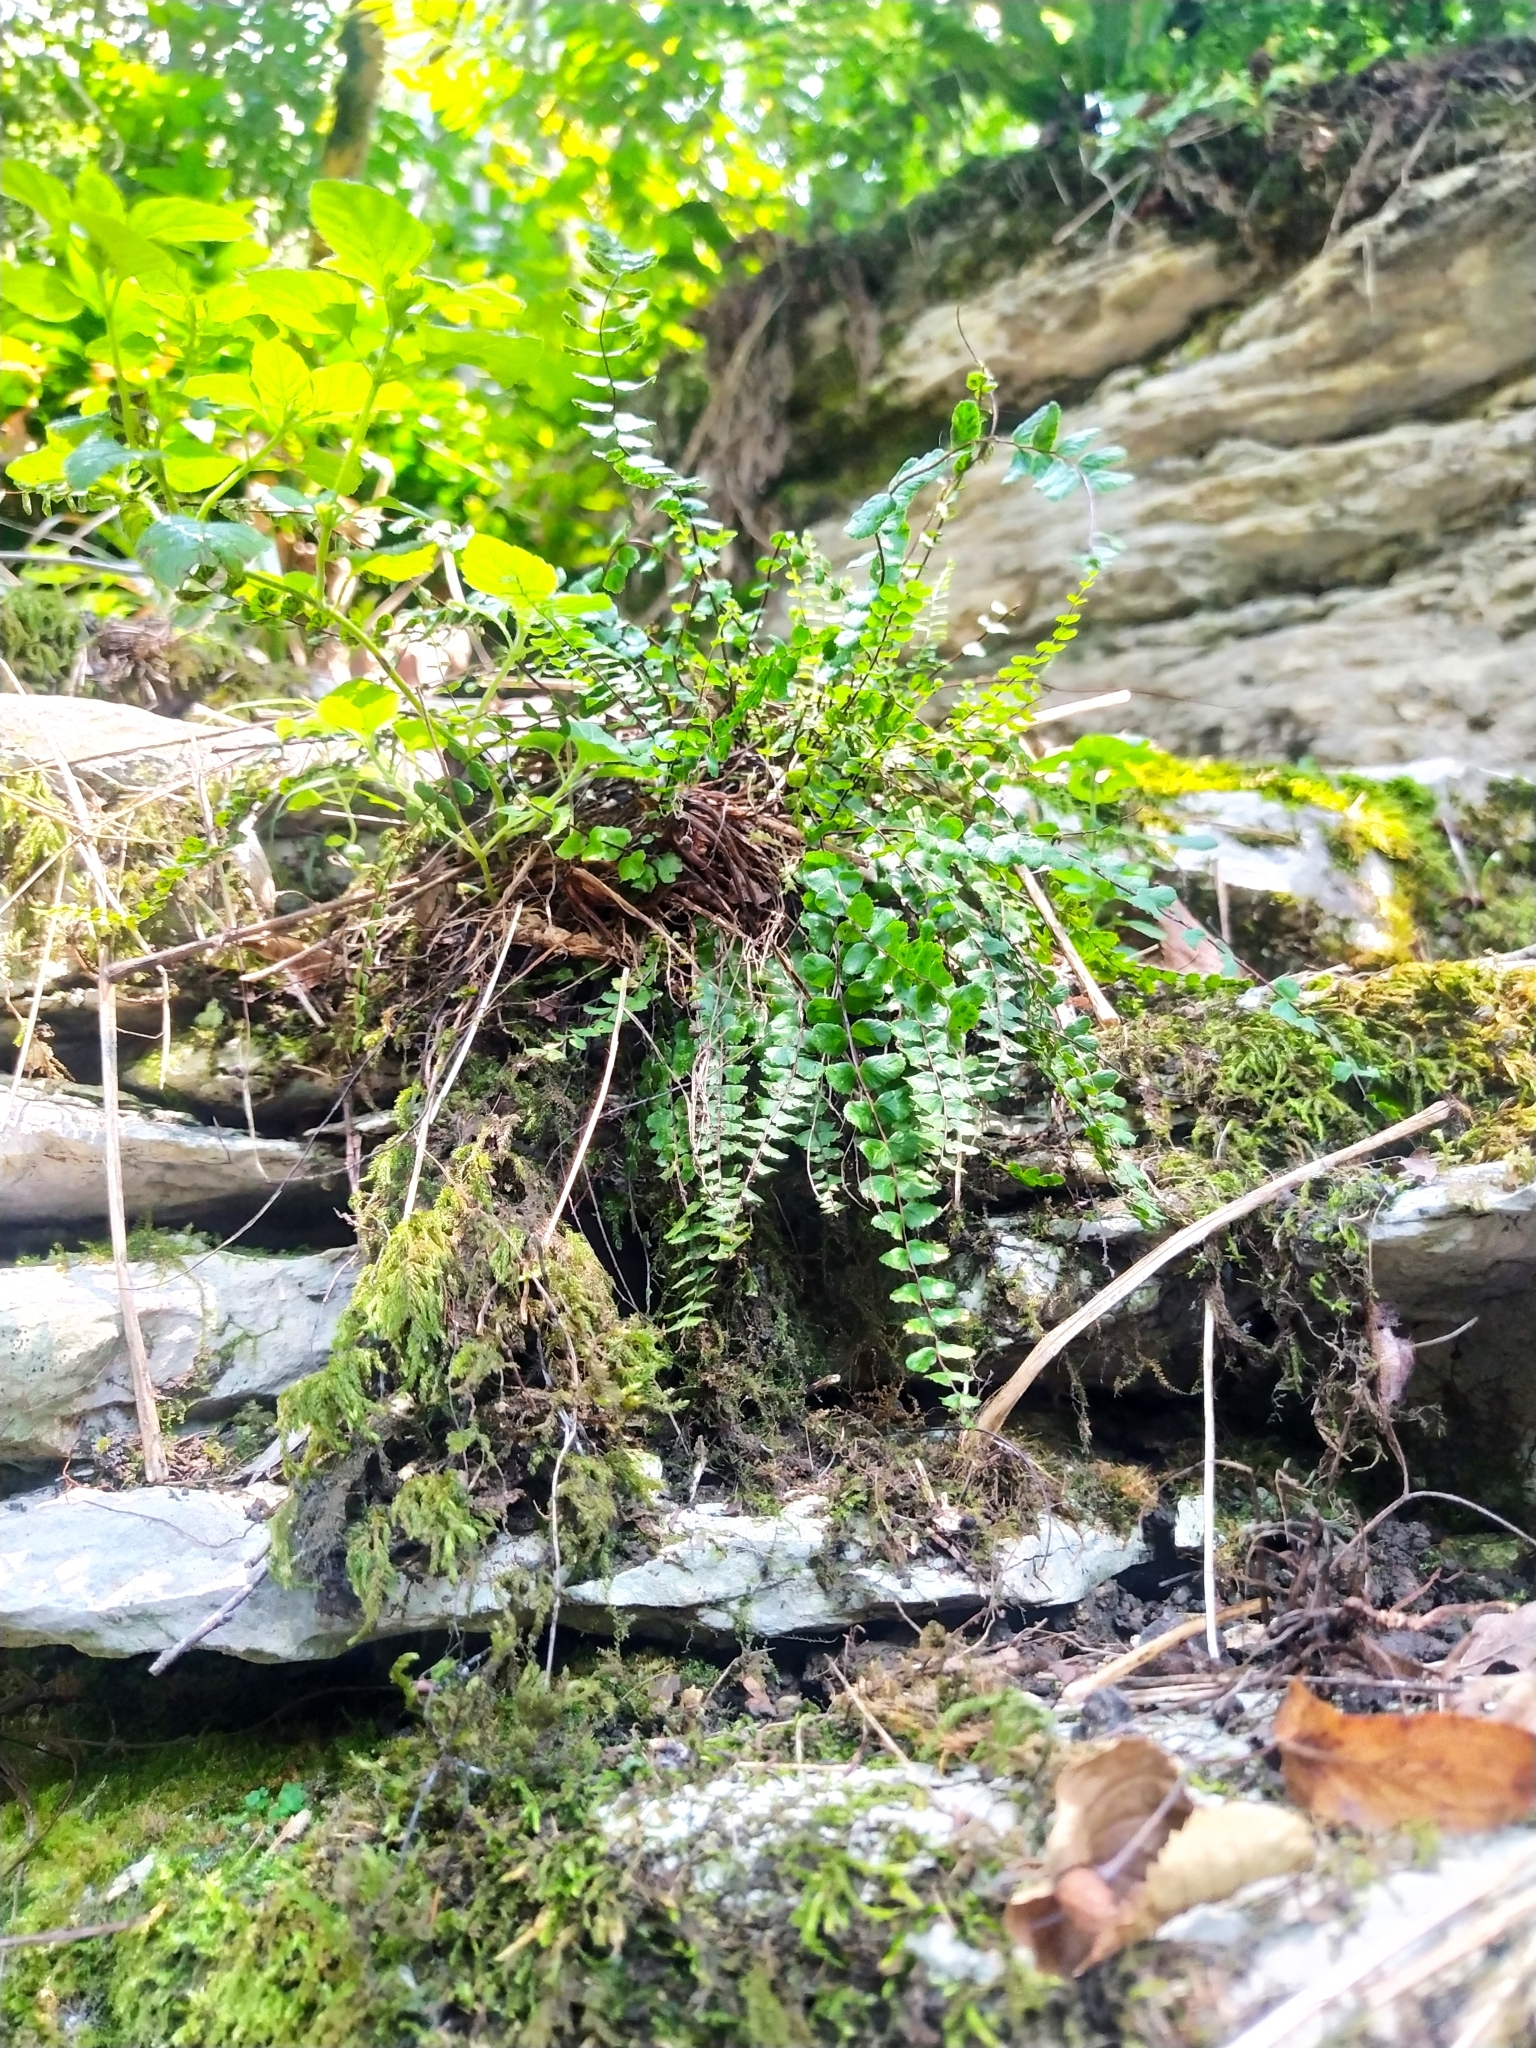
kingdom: Plantae
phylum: Tracheophyta
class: Polypodiopsida
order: Polypodiales
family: Aspleniaceae
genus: Asplenium
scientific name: Asplenium trichomanes
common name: Maidenhair spleenwort
